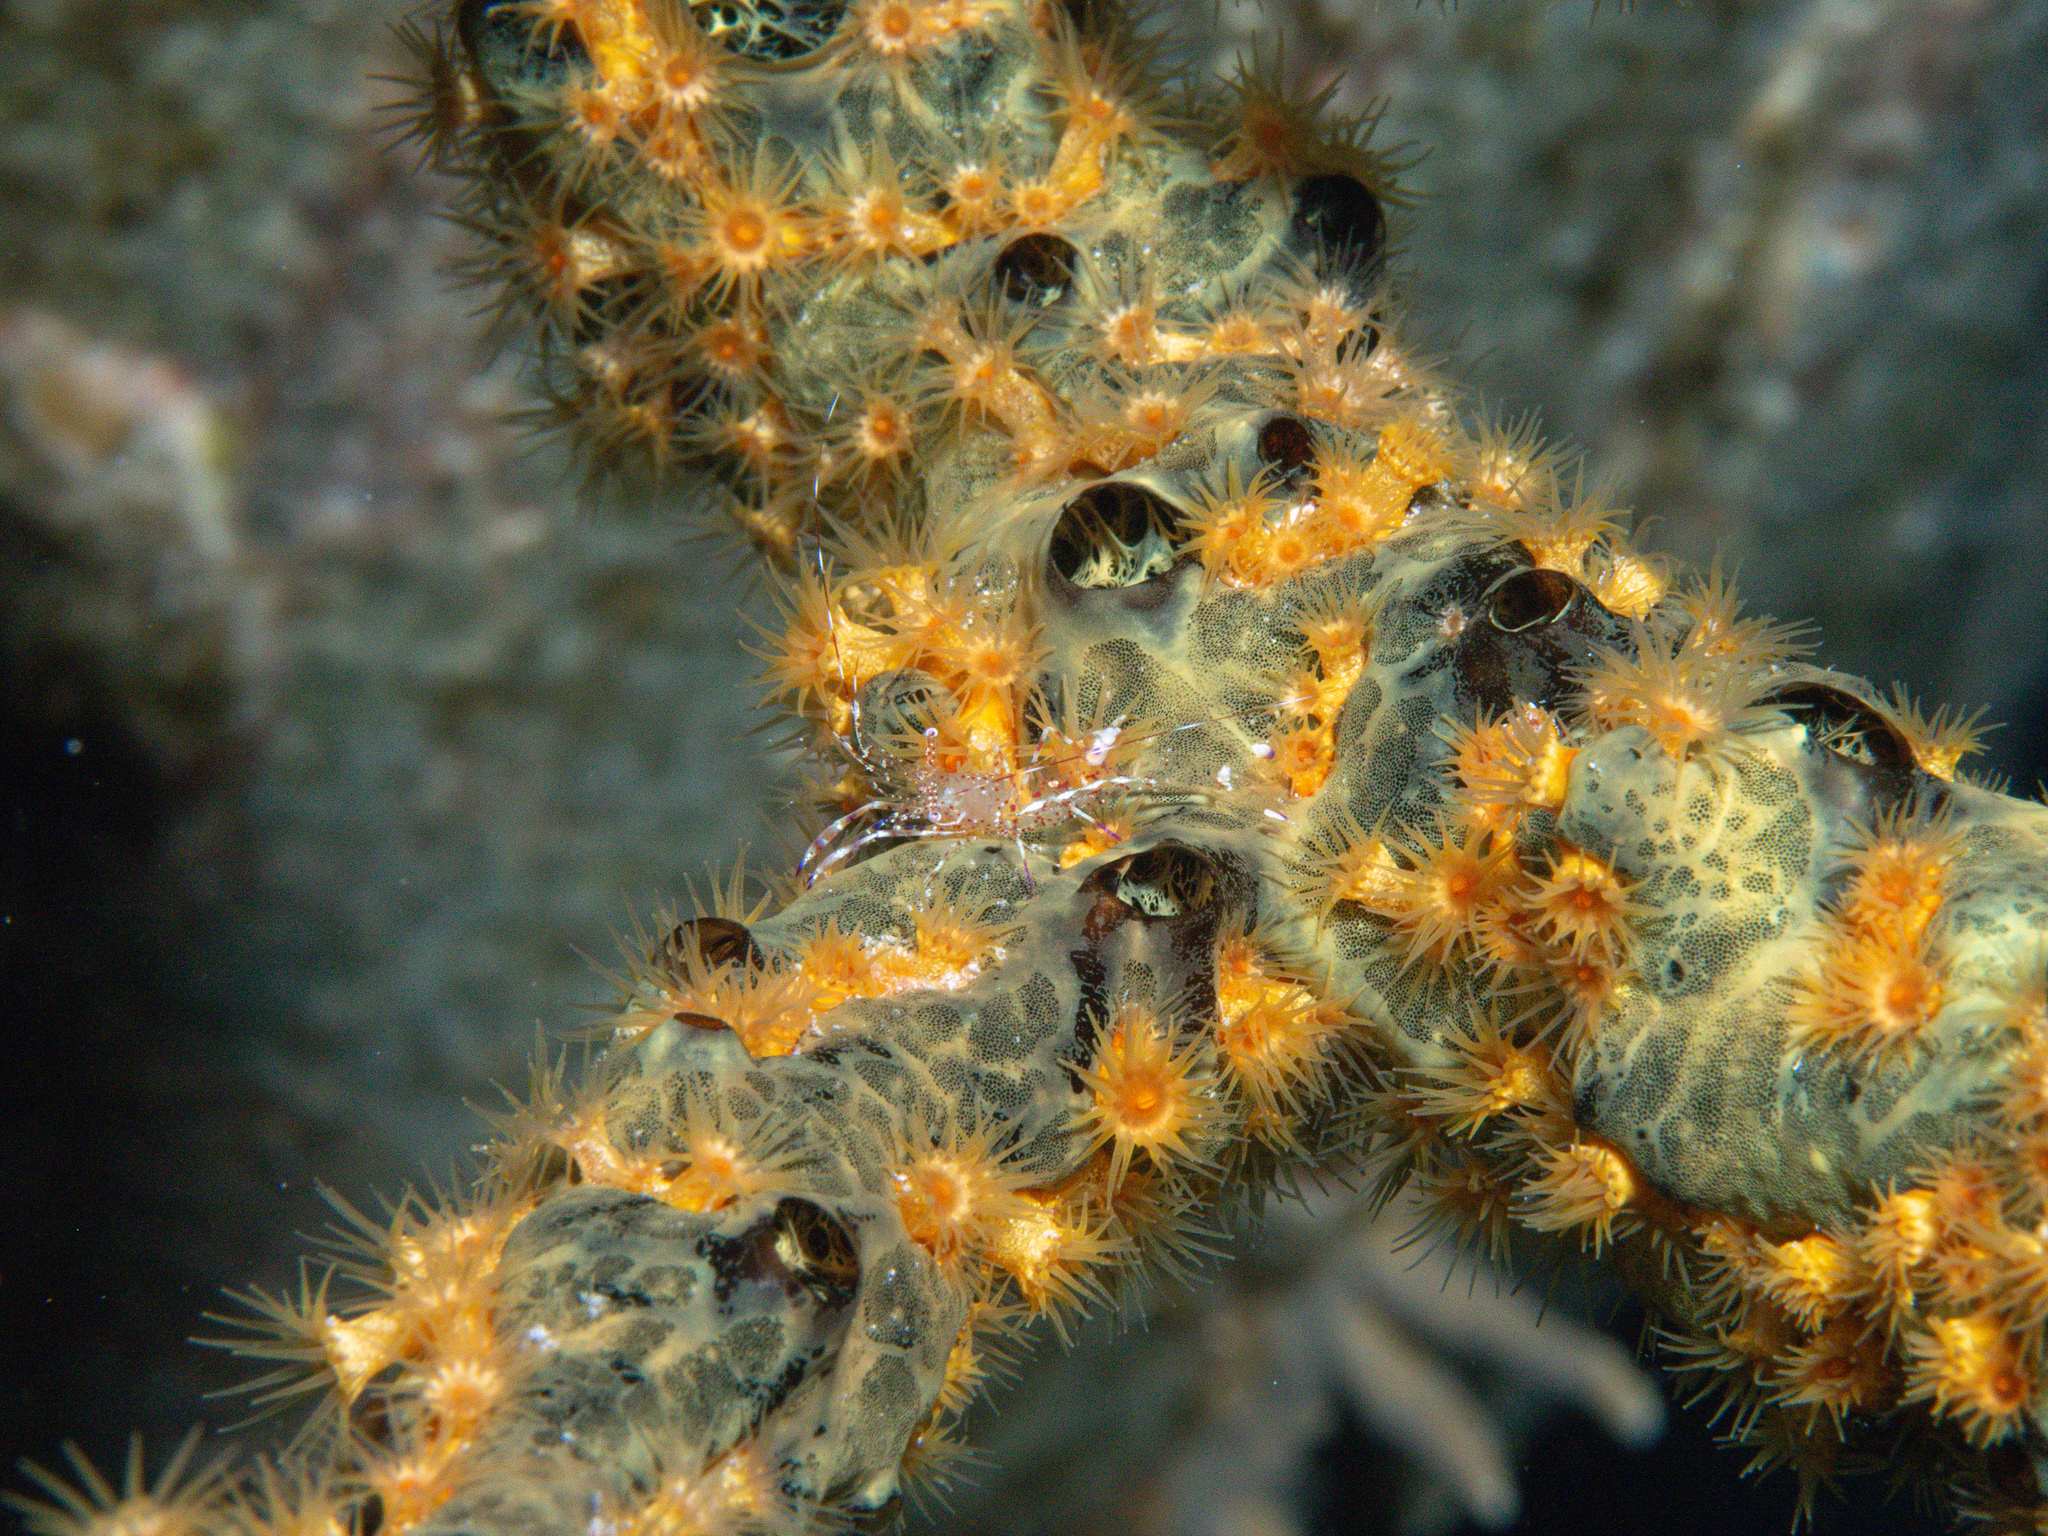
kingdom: Animalia
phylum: Porifera
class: Demospongiae
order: Poecilosclerida
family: Iotrochotidae
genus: Iotrochota
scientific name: Iotrochota birotulata
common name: Purple bleeding sponge
